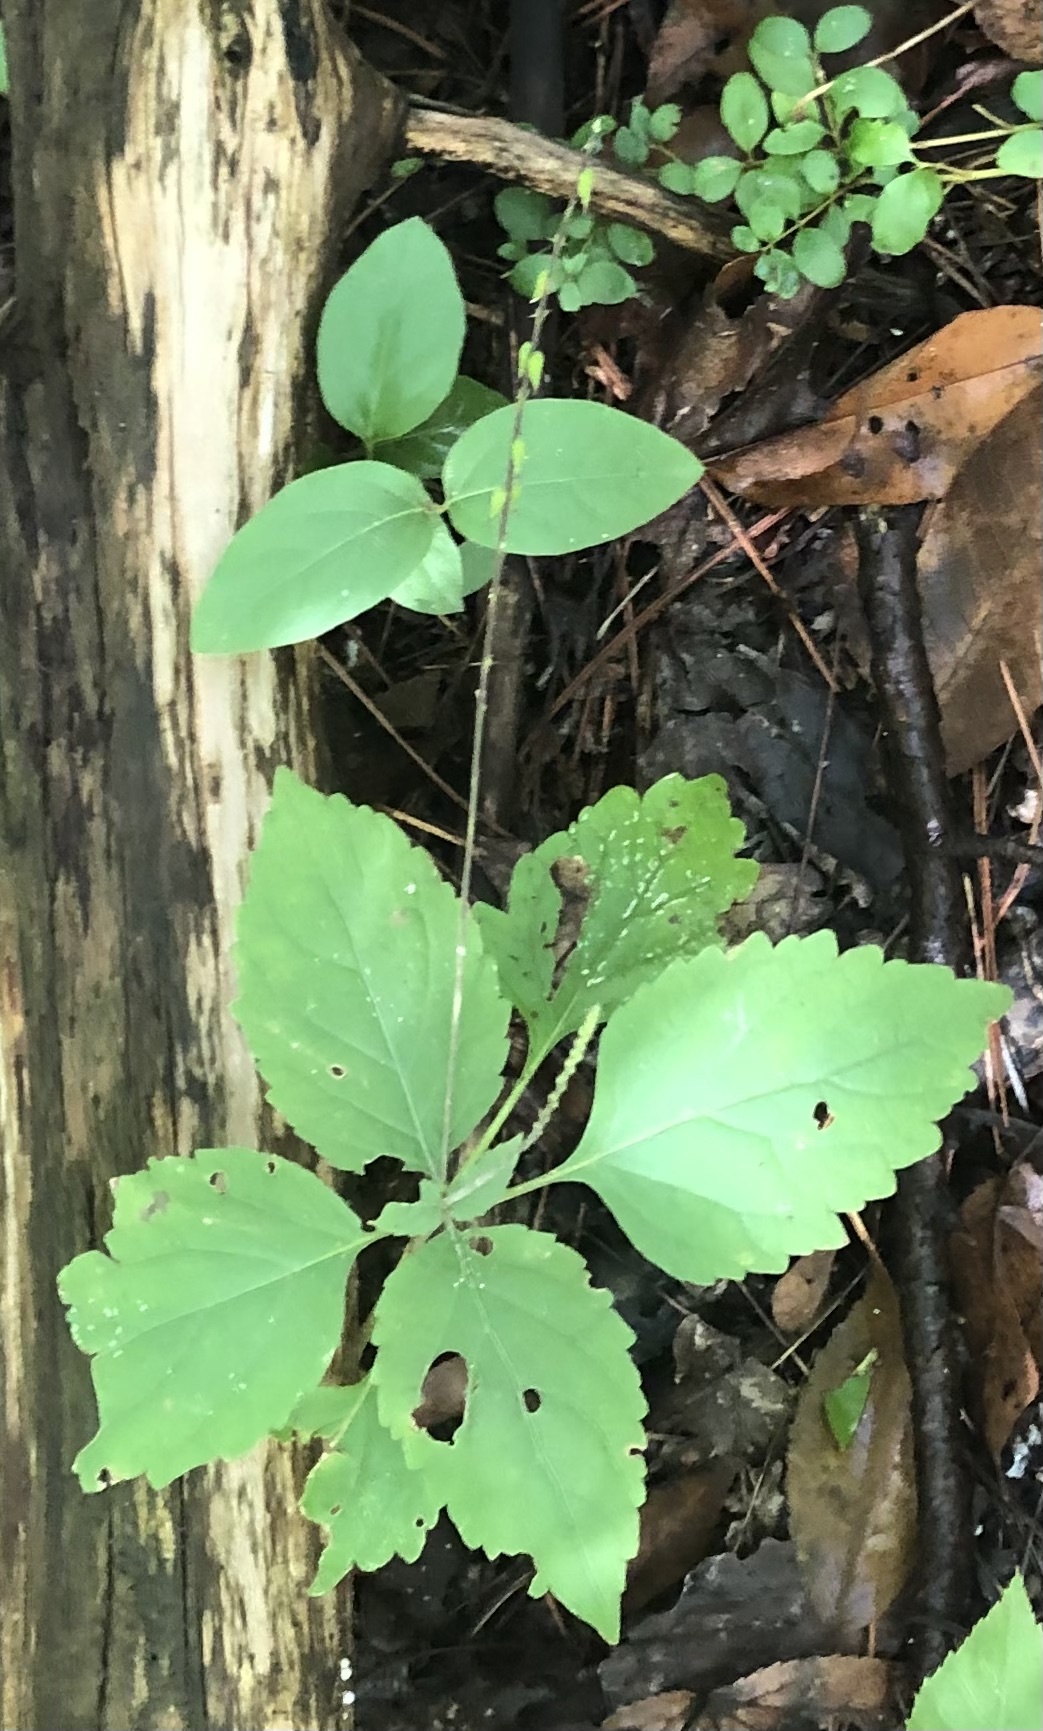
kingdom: Plantae
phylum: Tracheophyta
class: Magnoliopsida
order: Lamiales
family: Phrymaceae
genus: Phryma
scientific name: Phryma leptostachya
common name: American lopseed
